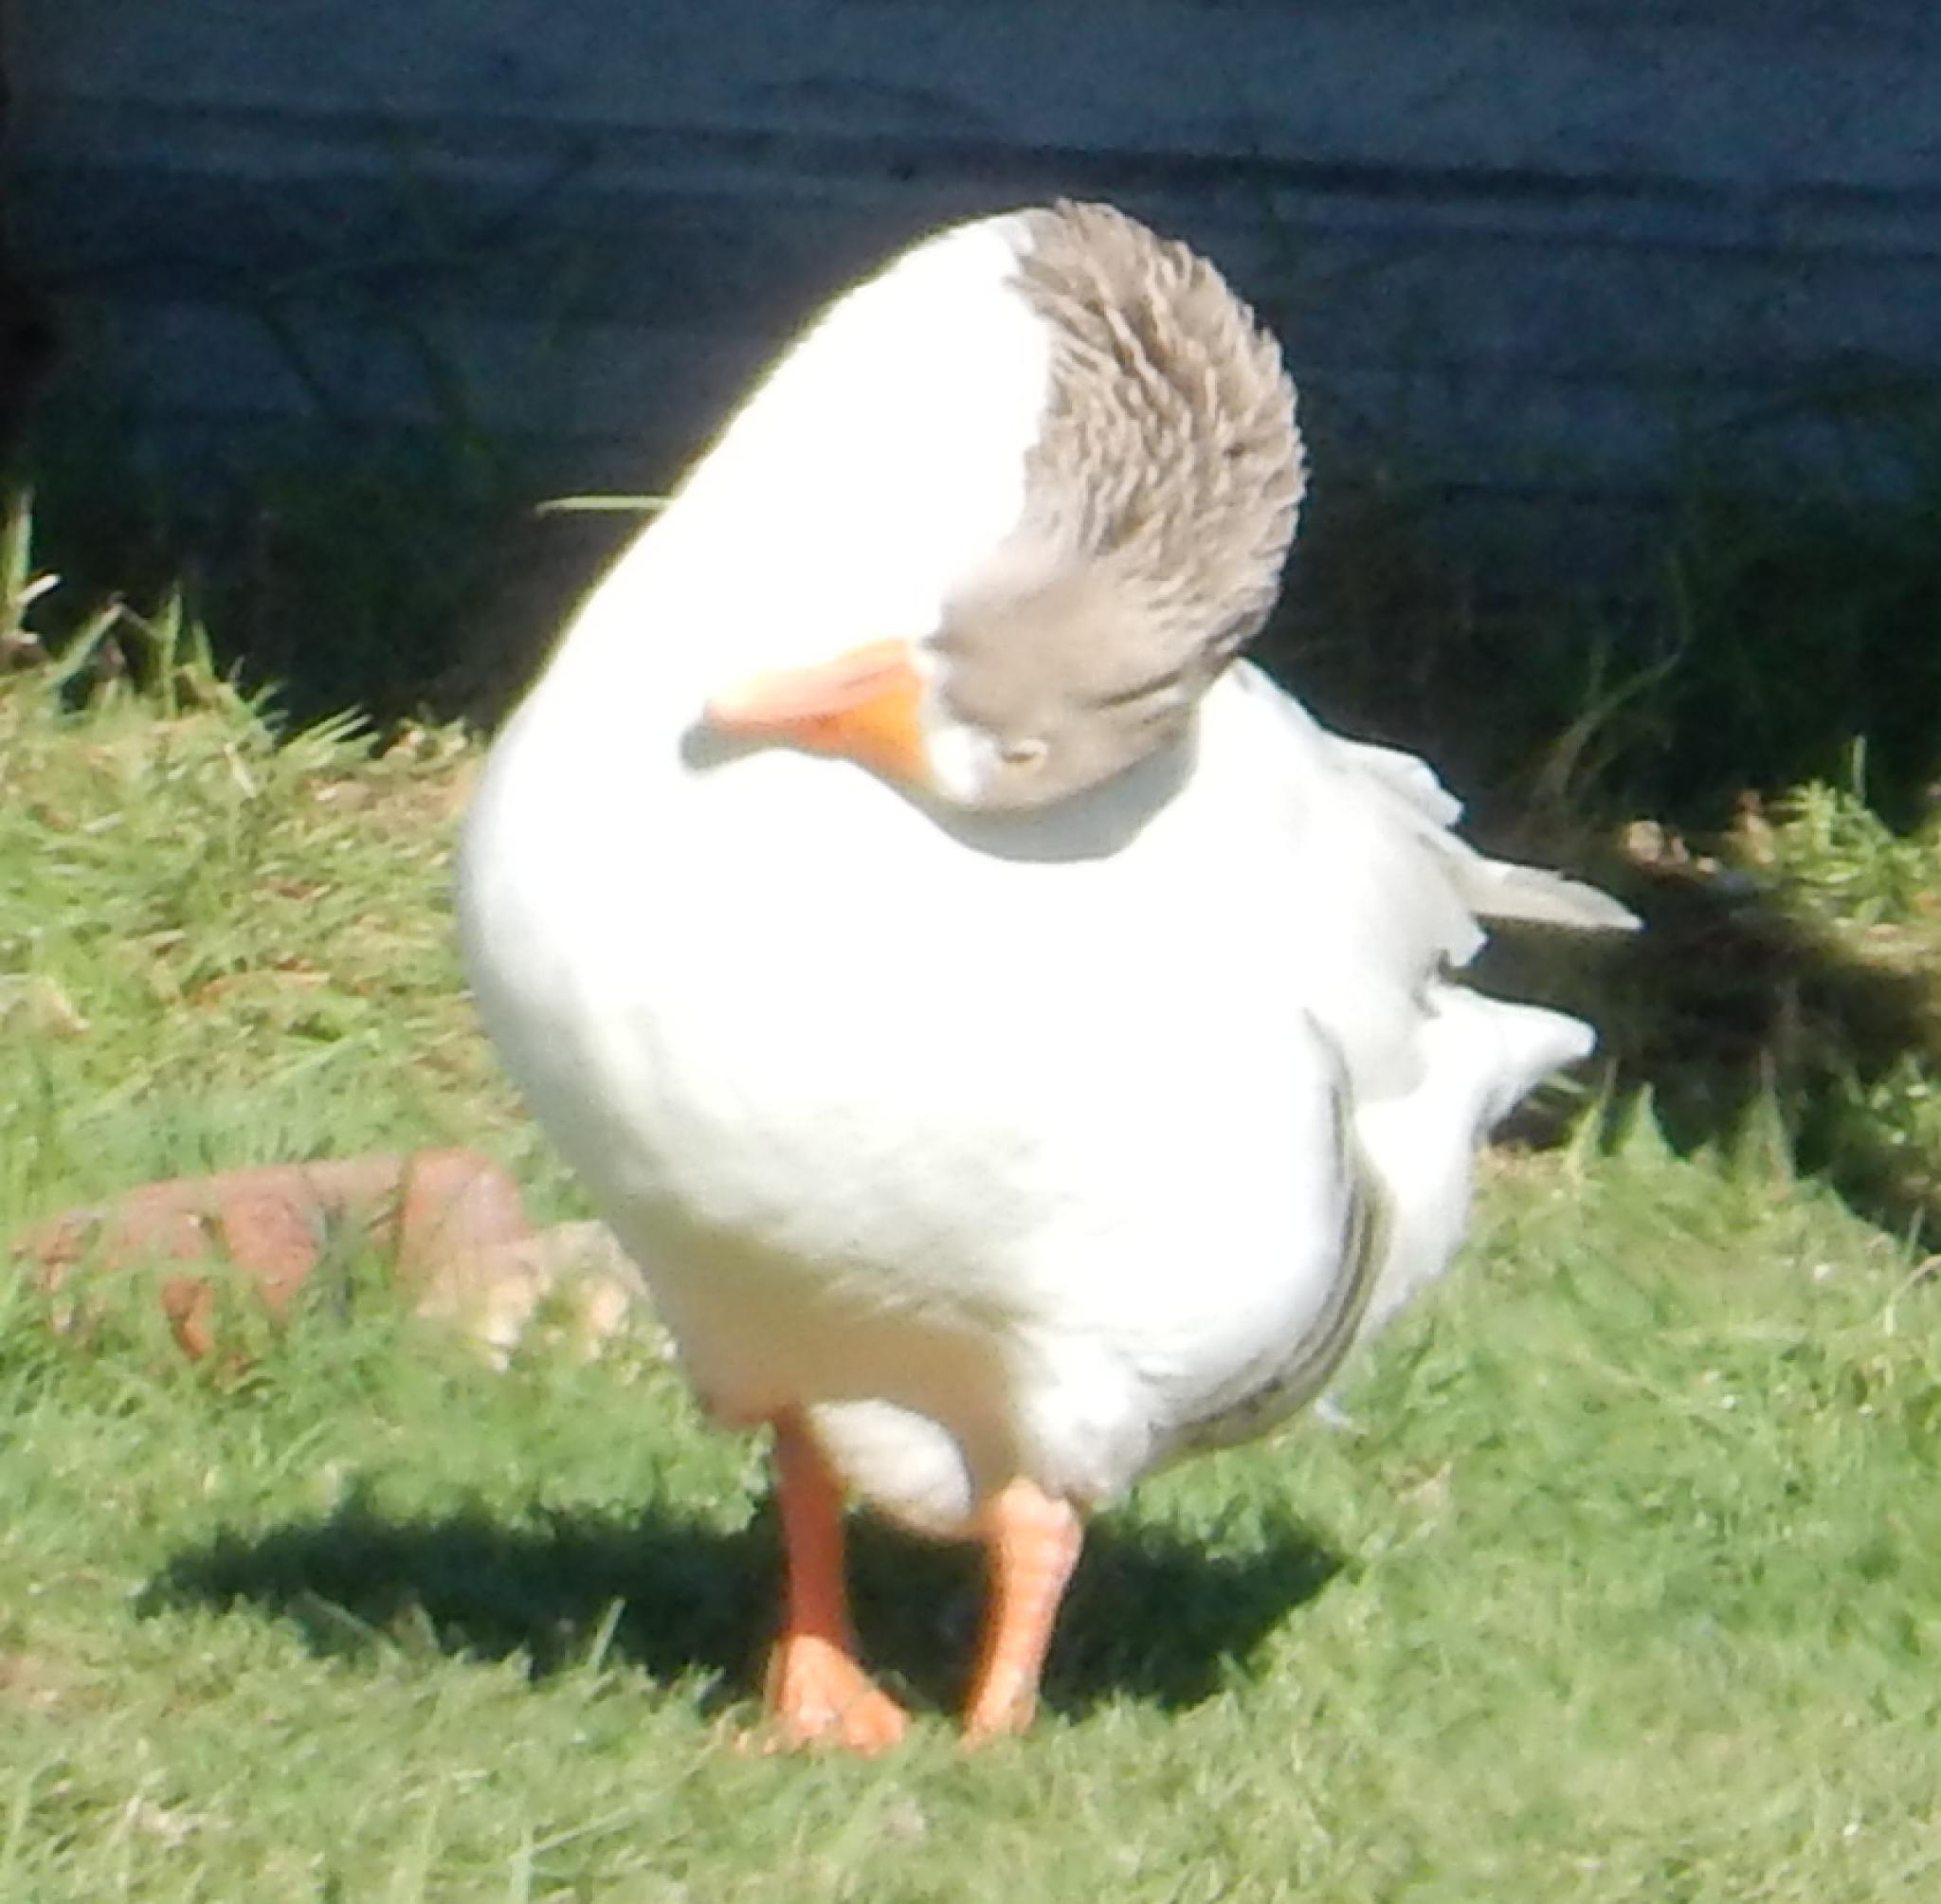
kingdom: Animalia
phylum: Chordata
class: Aves
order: Anseriformes
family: Anatidae
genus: Anser
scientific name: Anser anser
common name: Greylag goose
